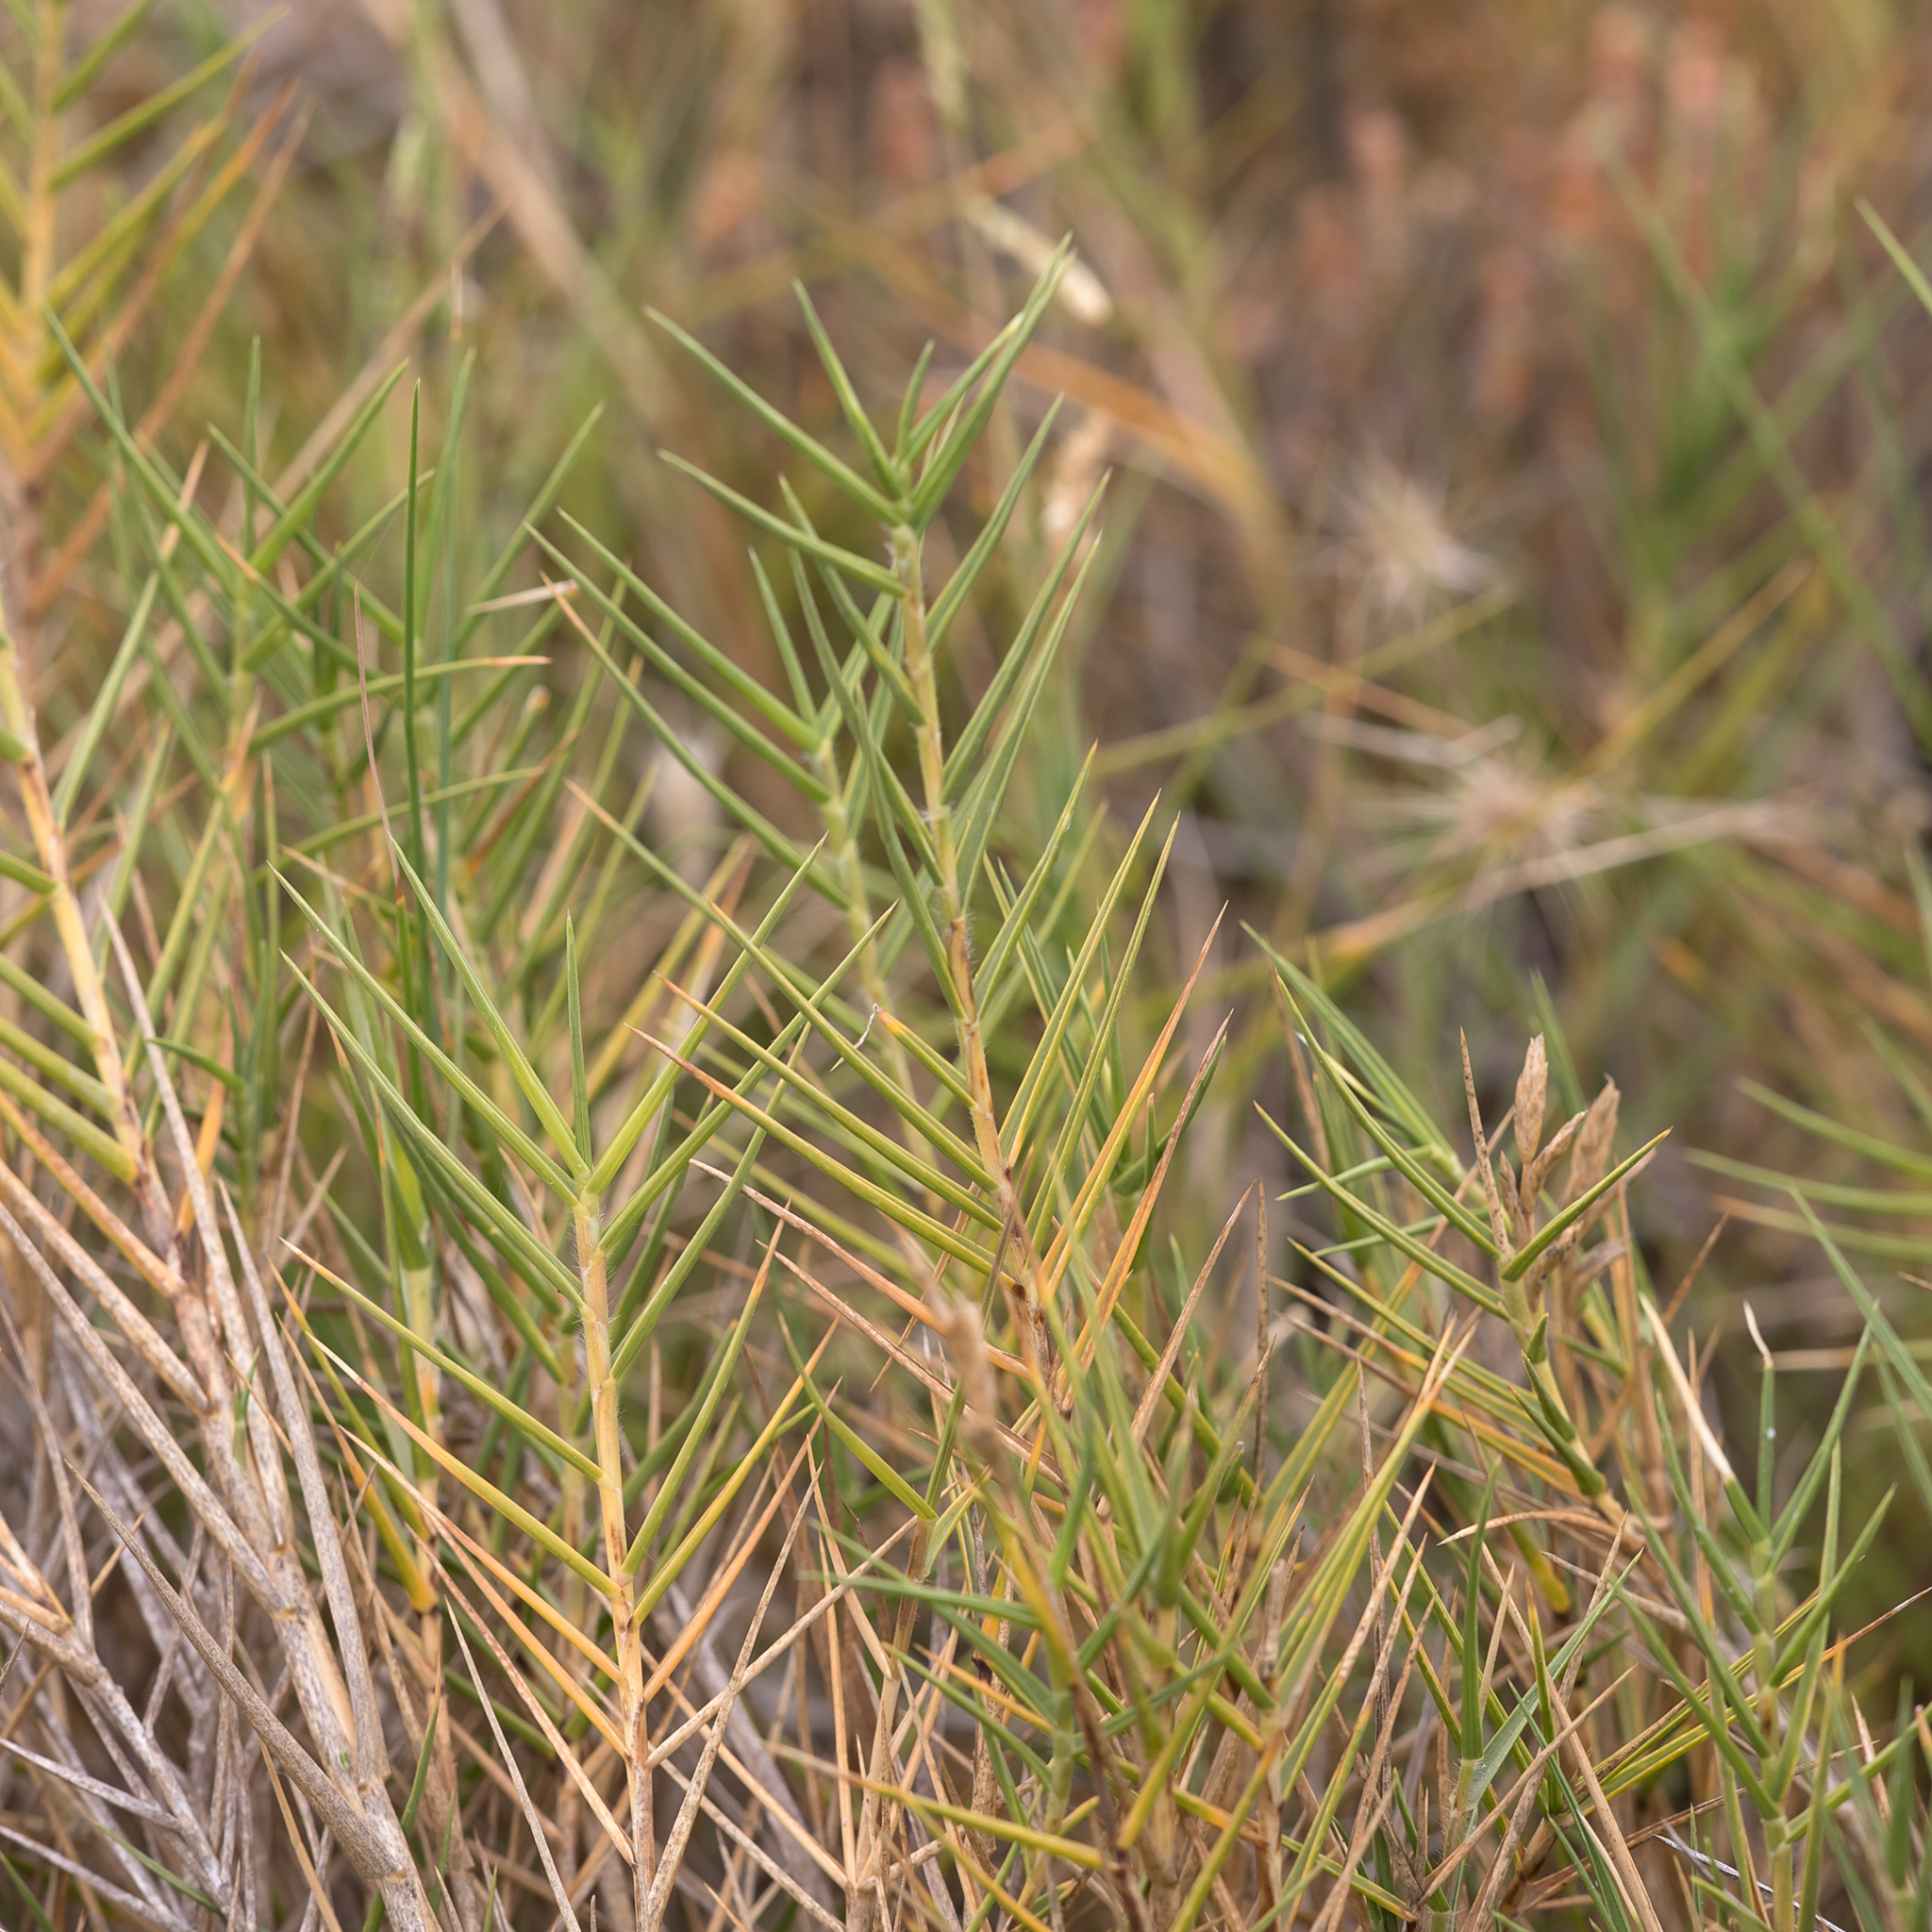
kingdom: Plantae
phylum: Tracheophyta
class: Liliopsida
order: Poales
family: Poaceae
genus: Distichlis
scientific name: Distichlis distichophylla
